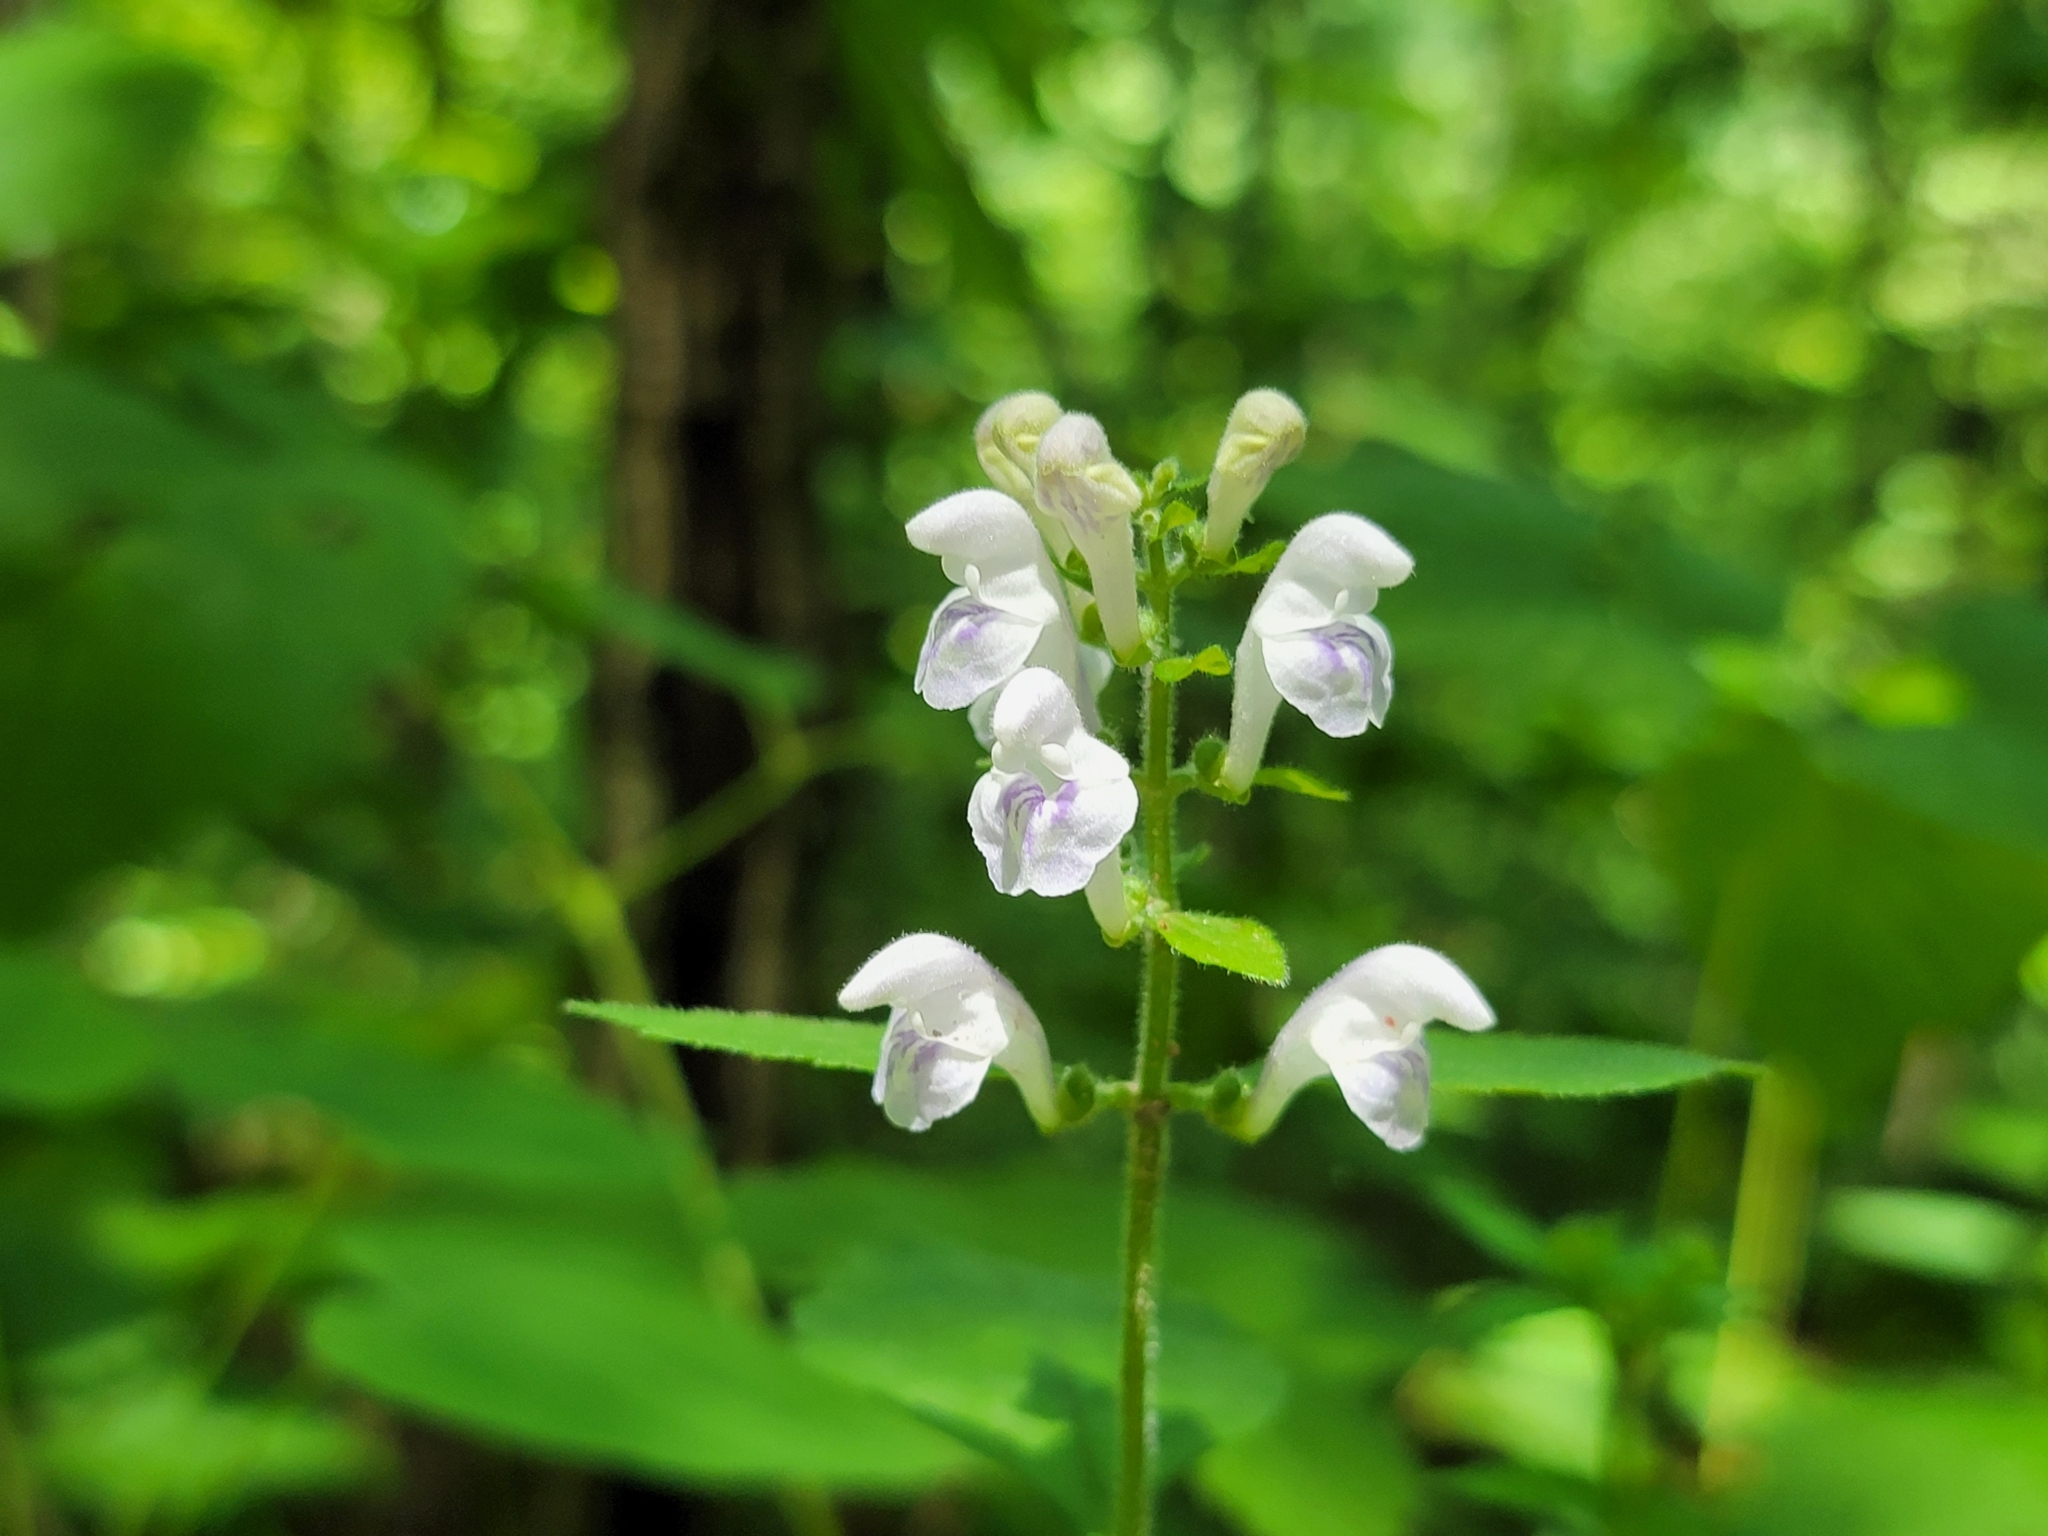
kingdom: Plantae
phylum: Tracheophyta
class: Magnoliopsida
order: Lamiales
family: Lamiaceae
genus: Scutellaria
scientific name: Scutellaria elliptica
